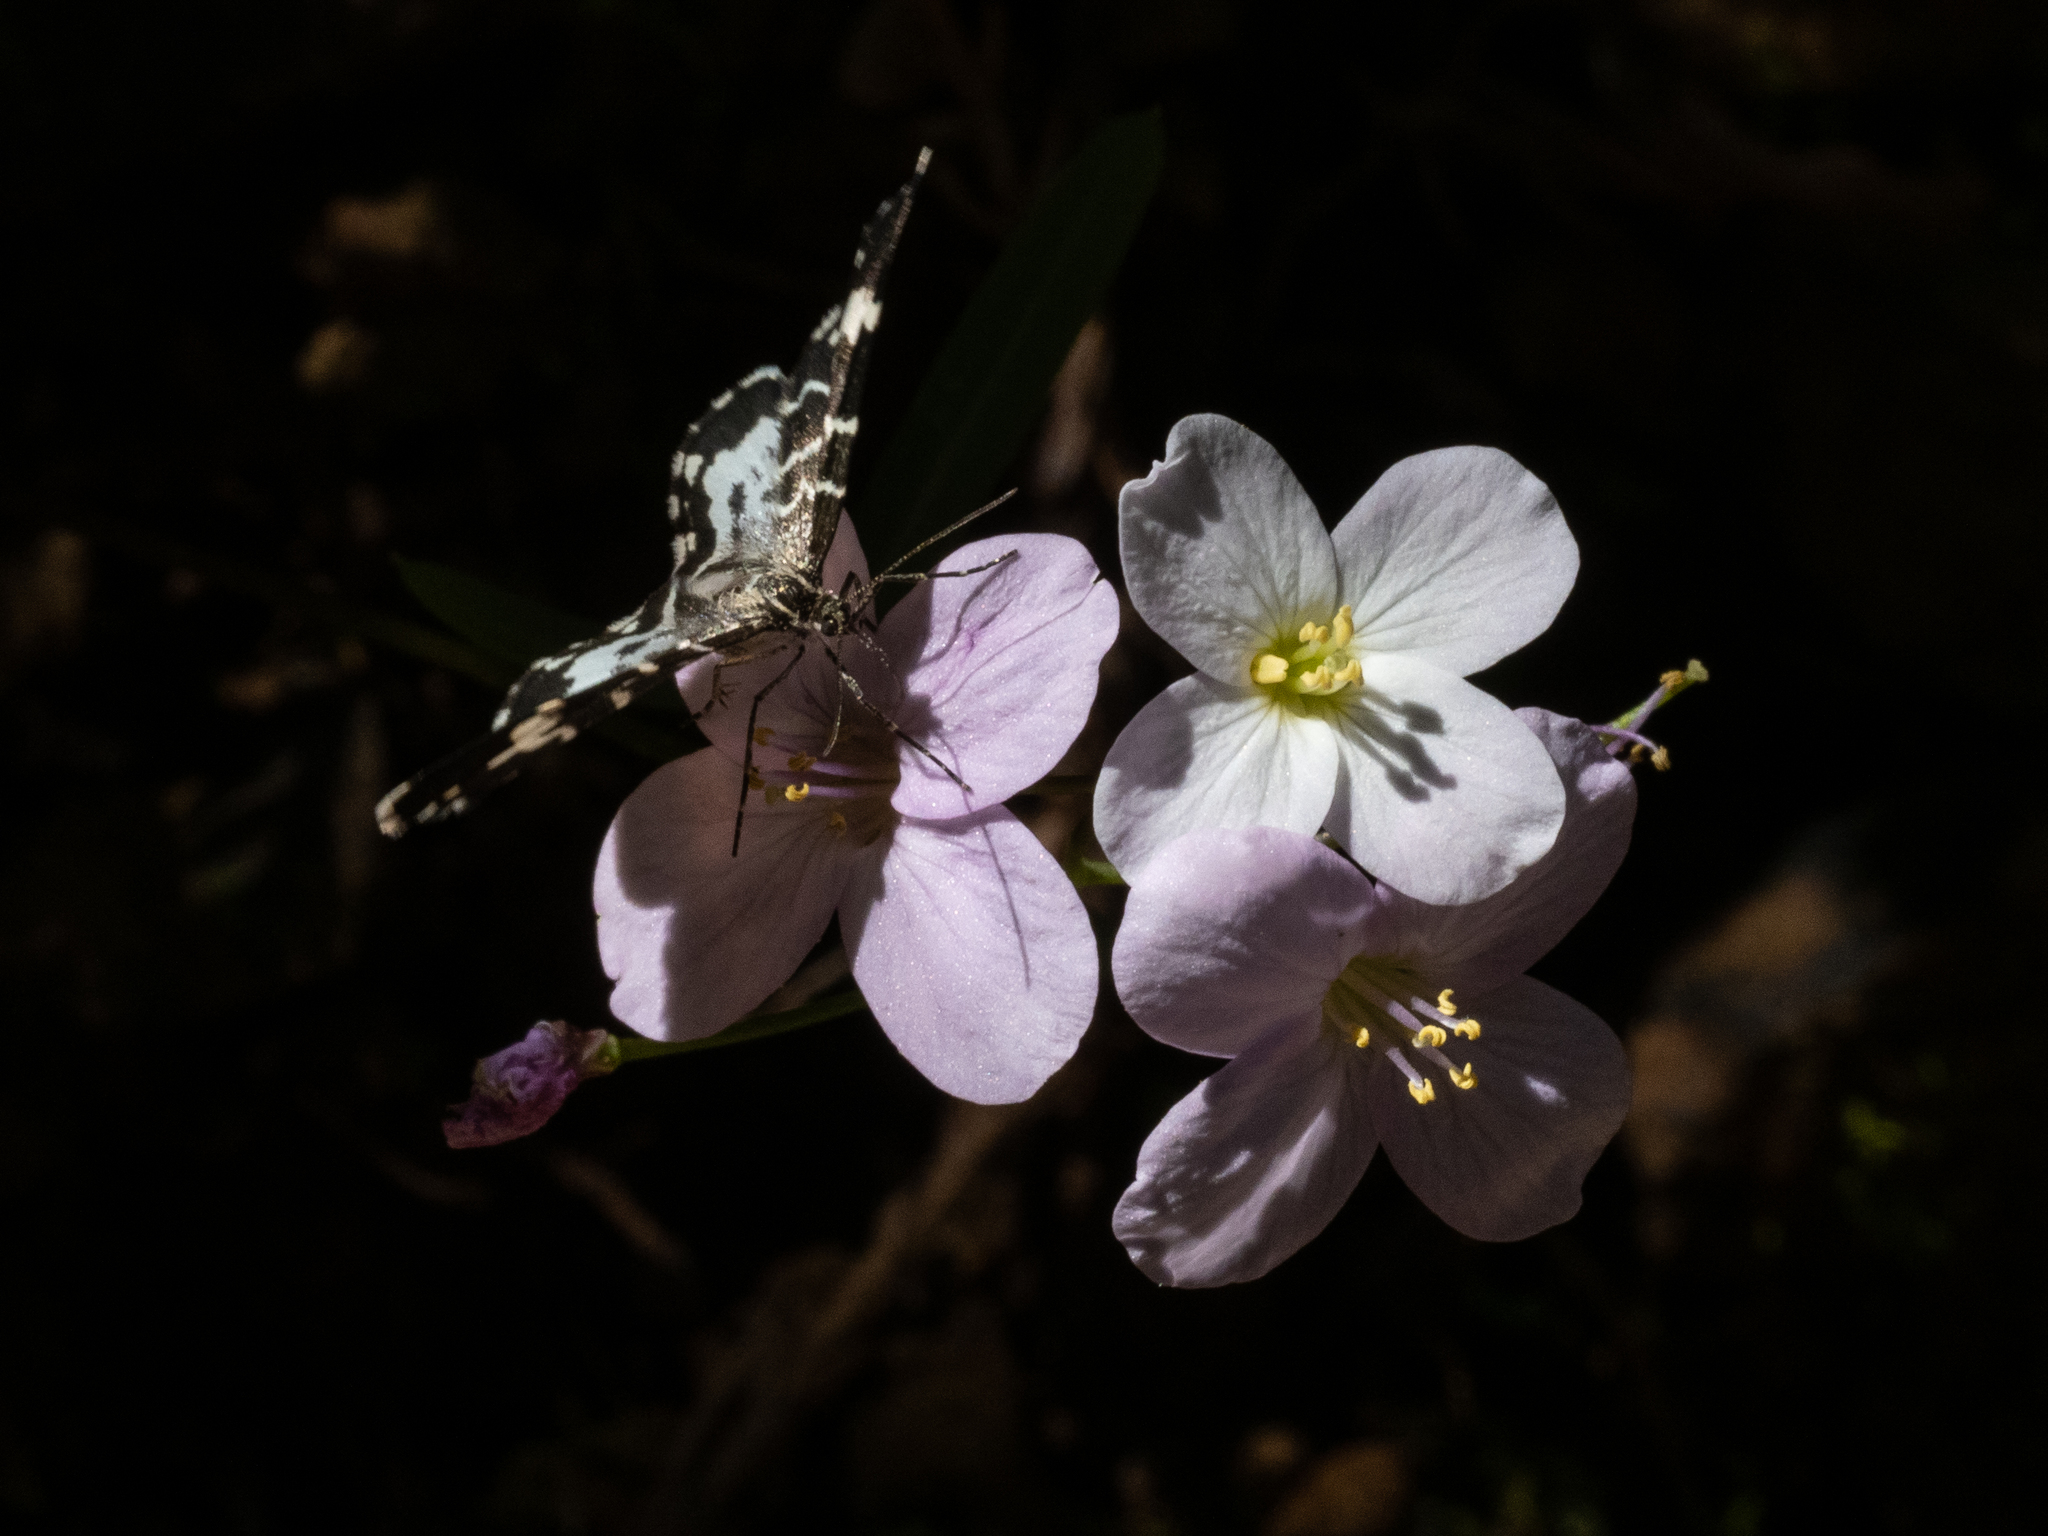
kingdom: Animalia
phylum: Arthropoda
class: Insecta
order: Lepidoptera
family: Geometridae
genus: Trichodezia
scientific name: Trichodezia californiata
